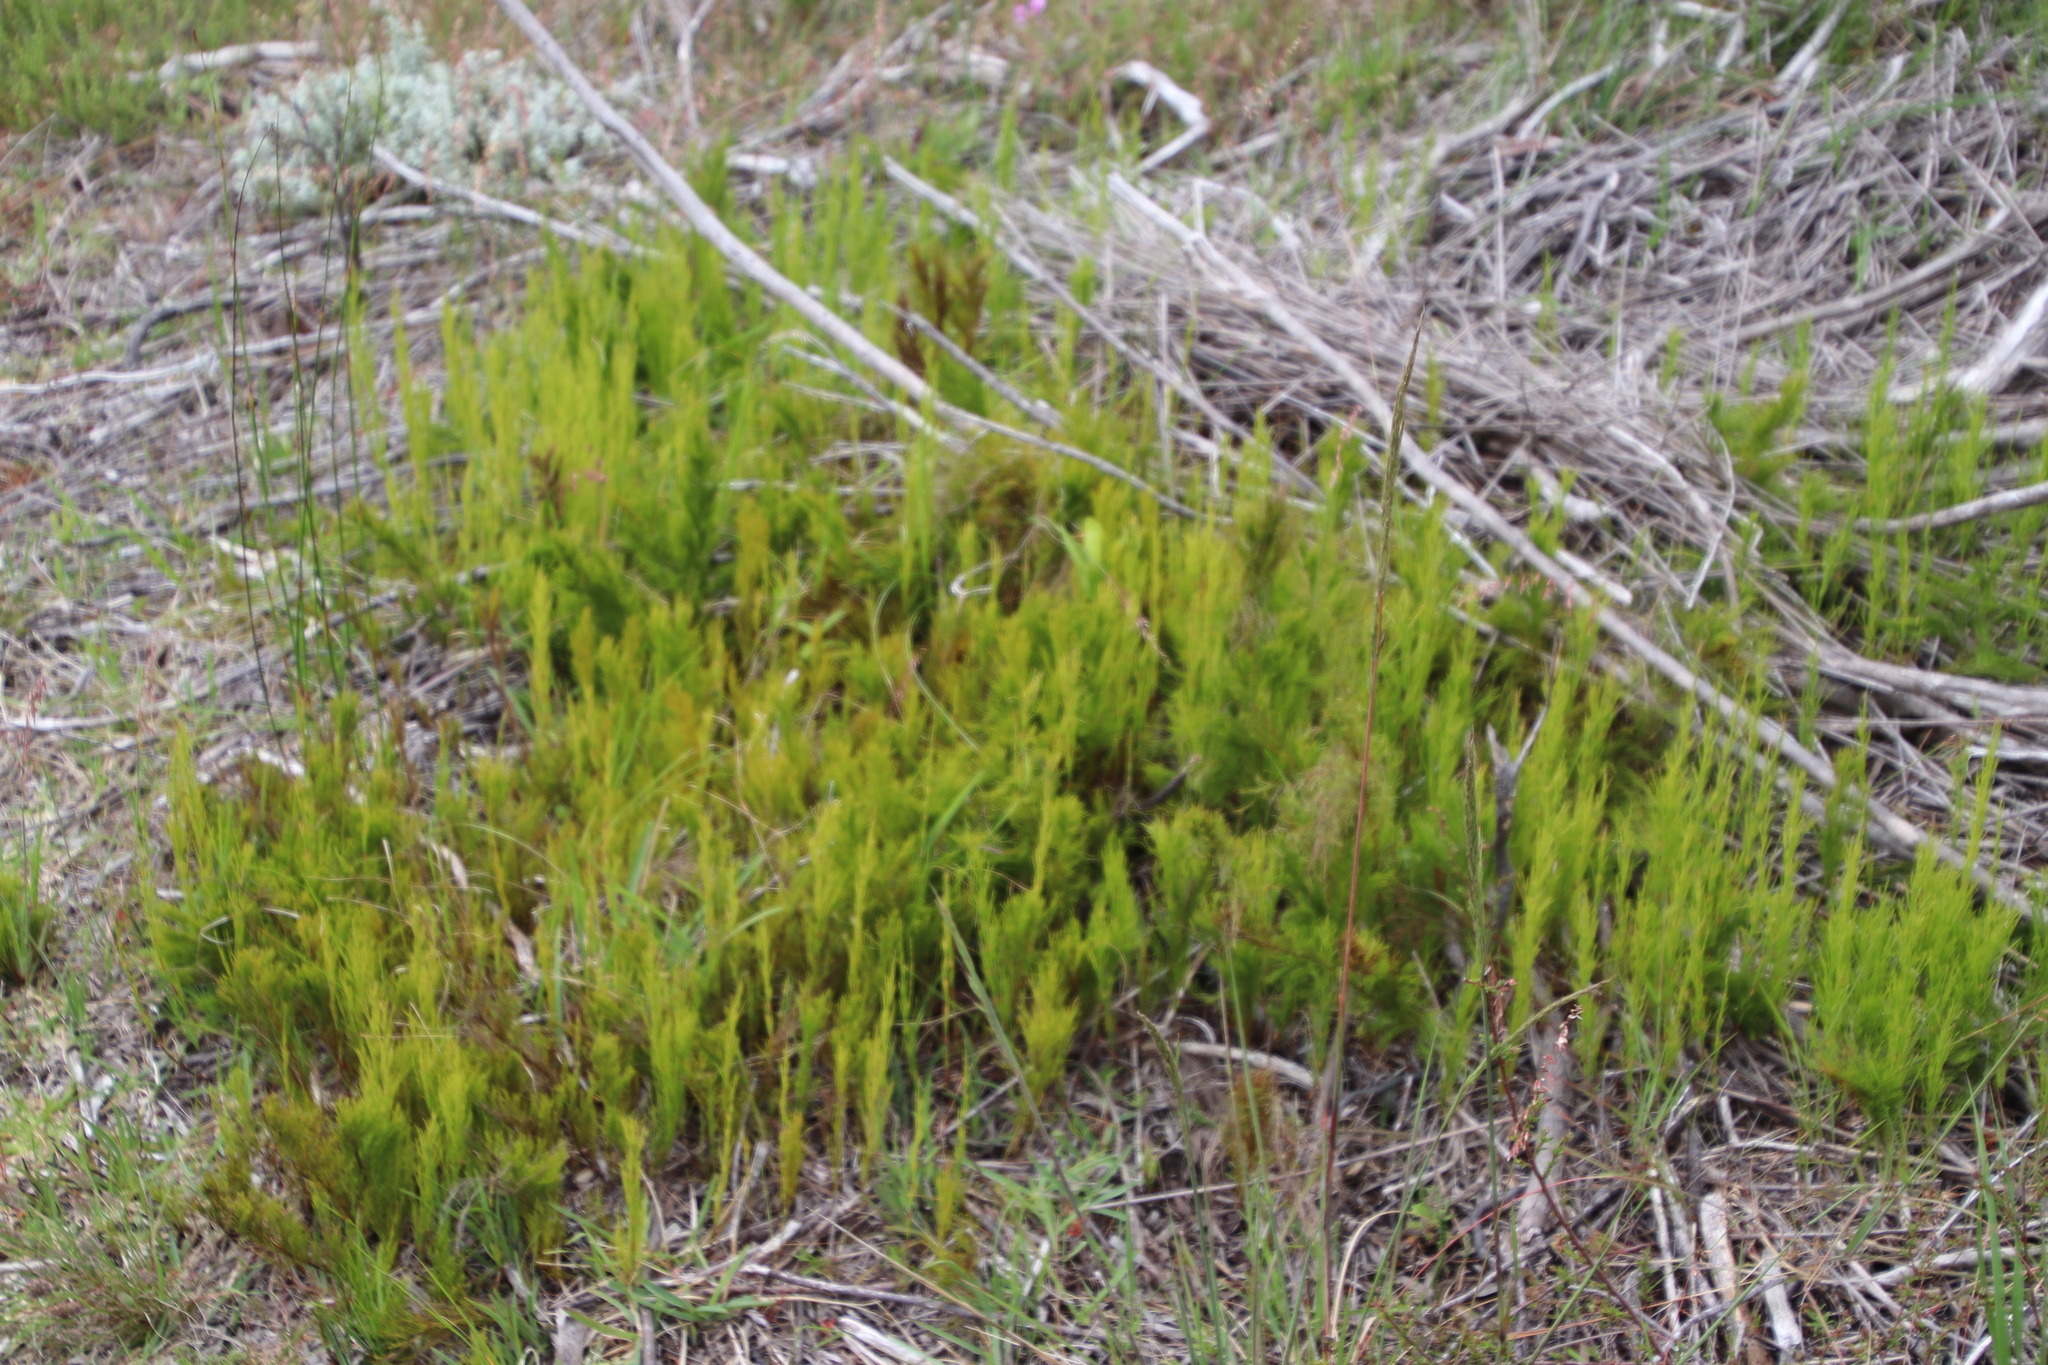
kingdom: Plantae
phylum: Tracheophyta
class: Liliopsida
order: Poales
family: Restionaceae
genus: Restio
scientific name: Restio leptoclados
